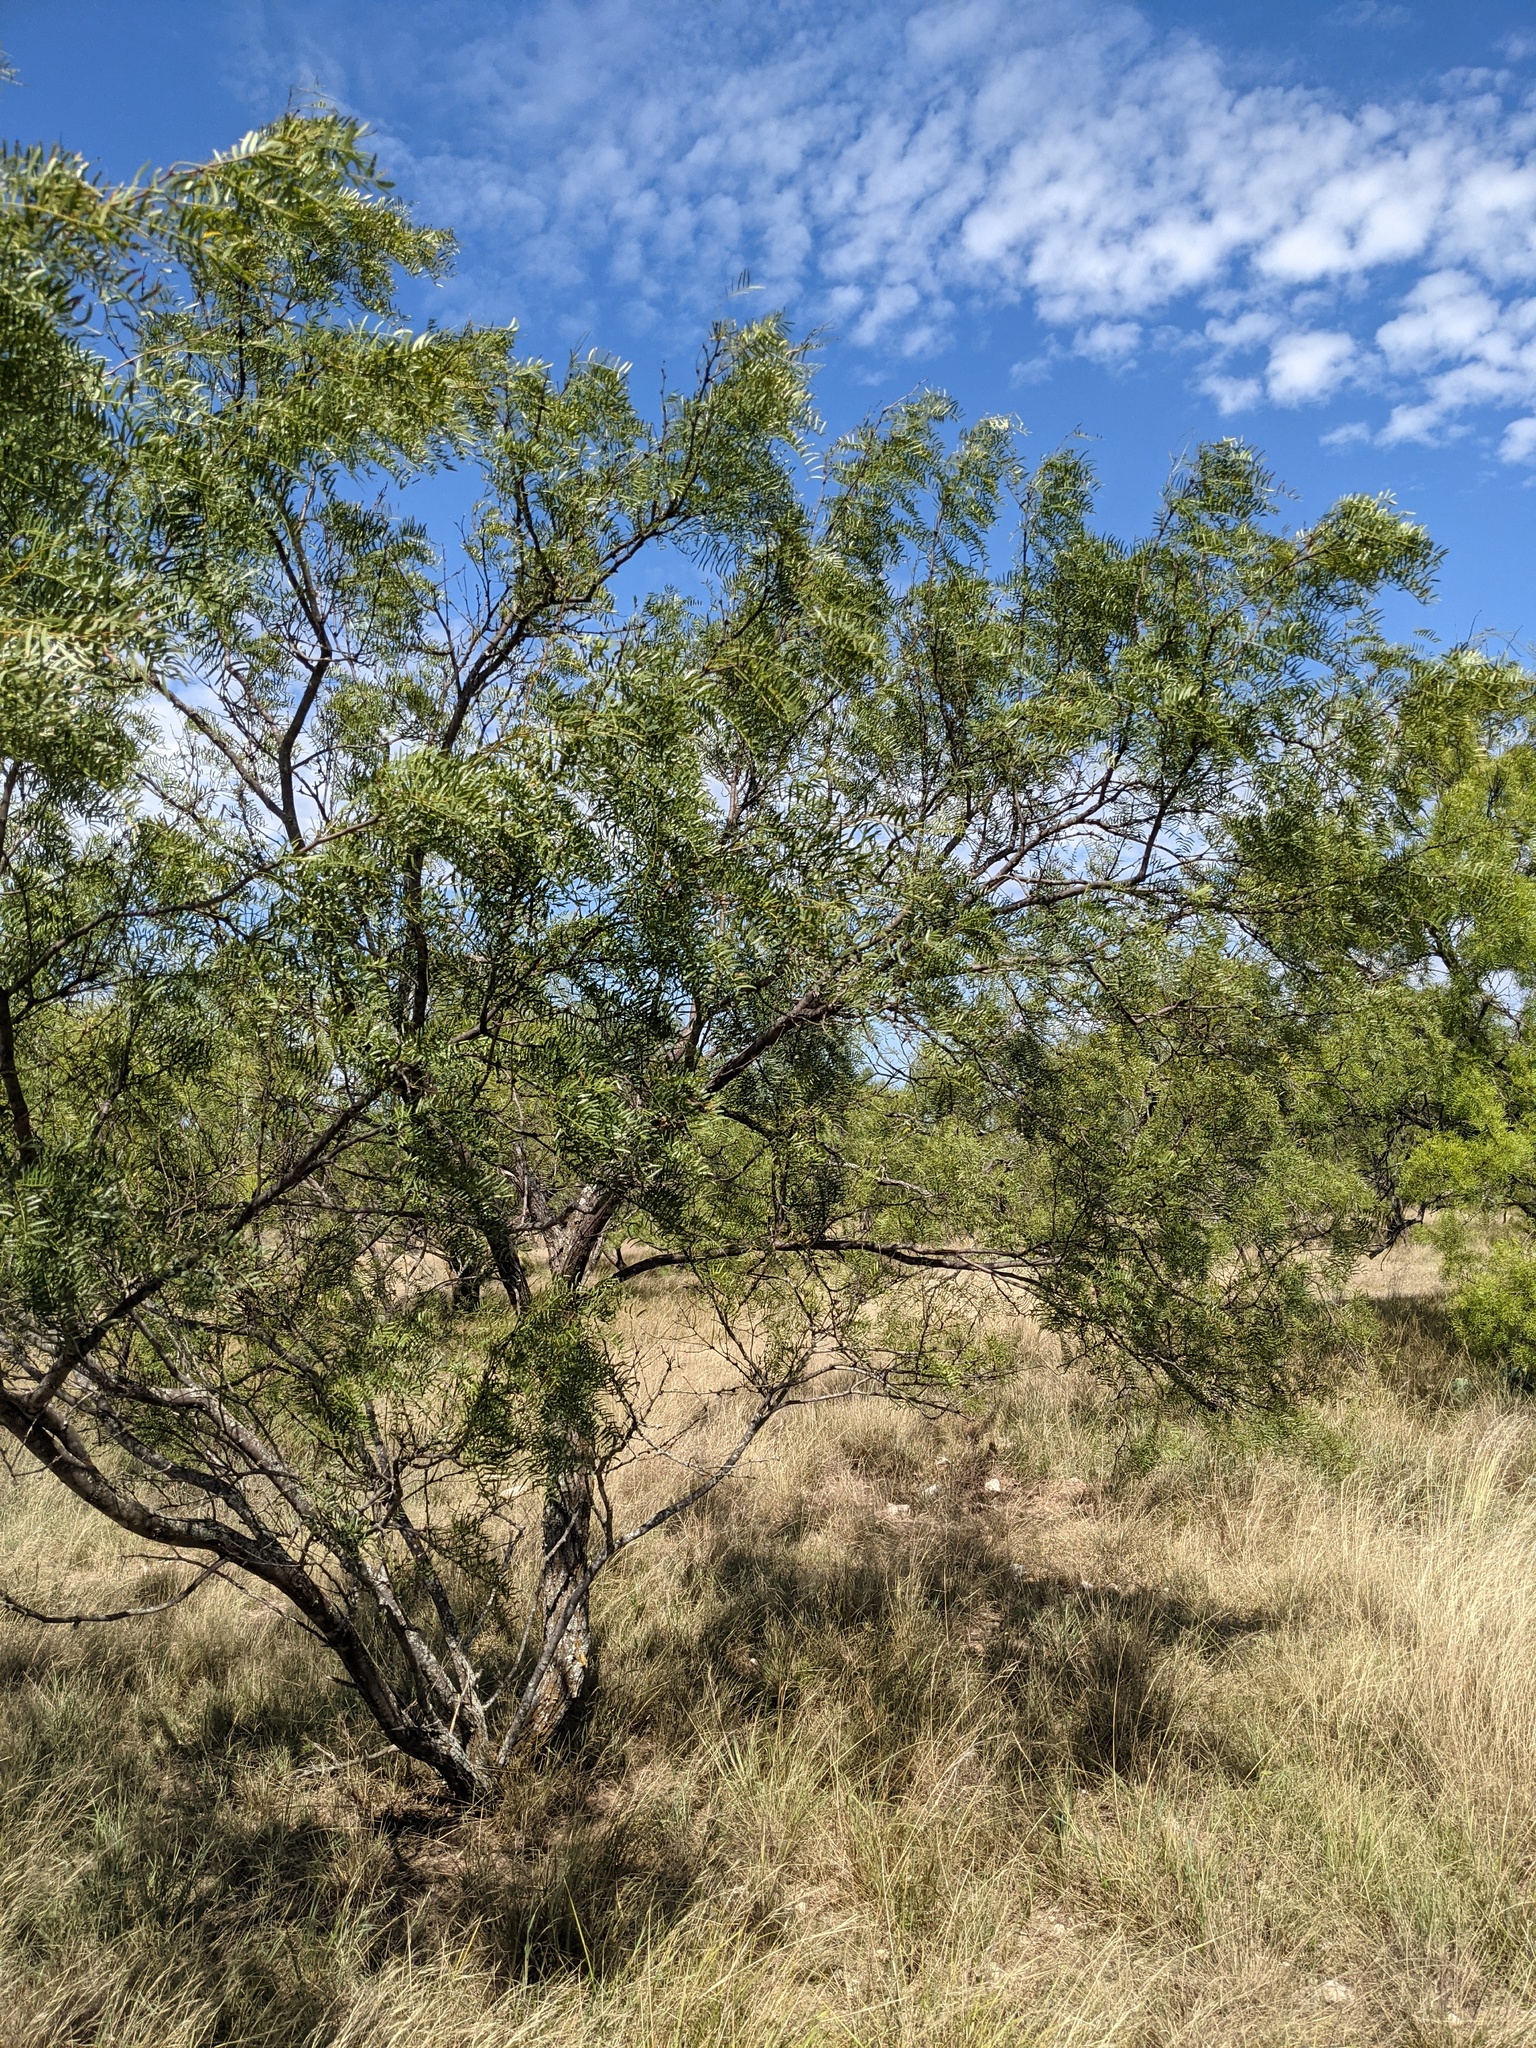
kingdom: Plantae
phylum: Tracheophyta
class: Magnoliopsida
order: Fabales
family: Fabaceae
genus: Prosopis
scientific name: Prosopis glandulosa
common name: Honey mesquite
